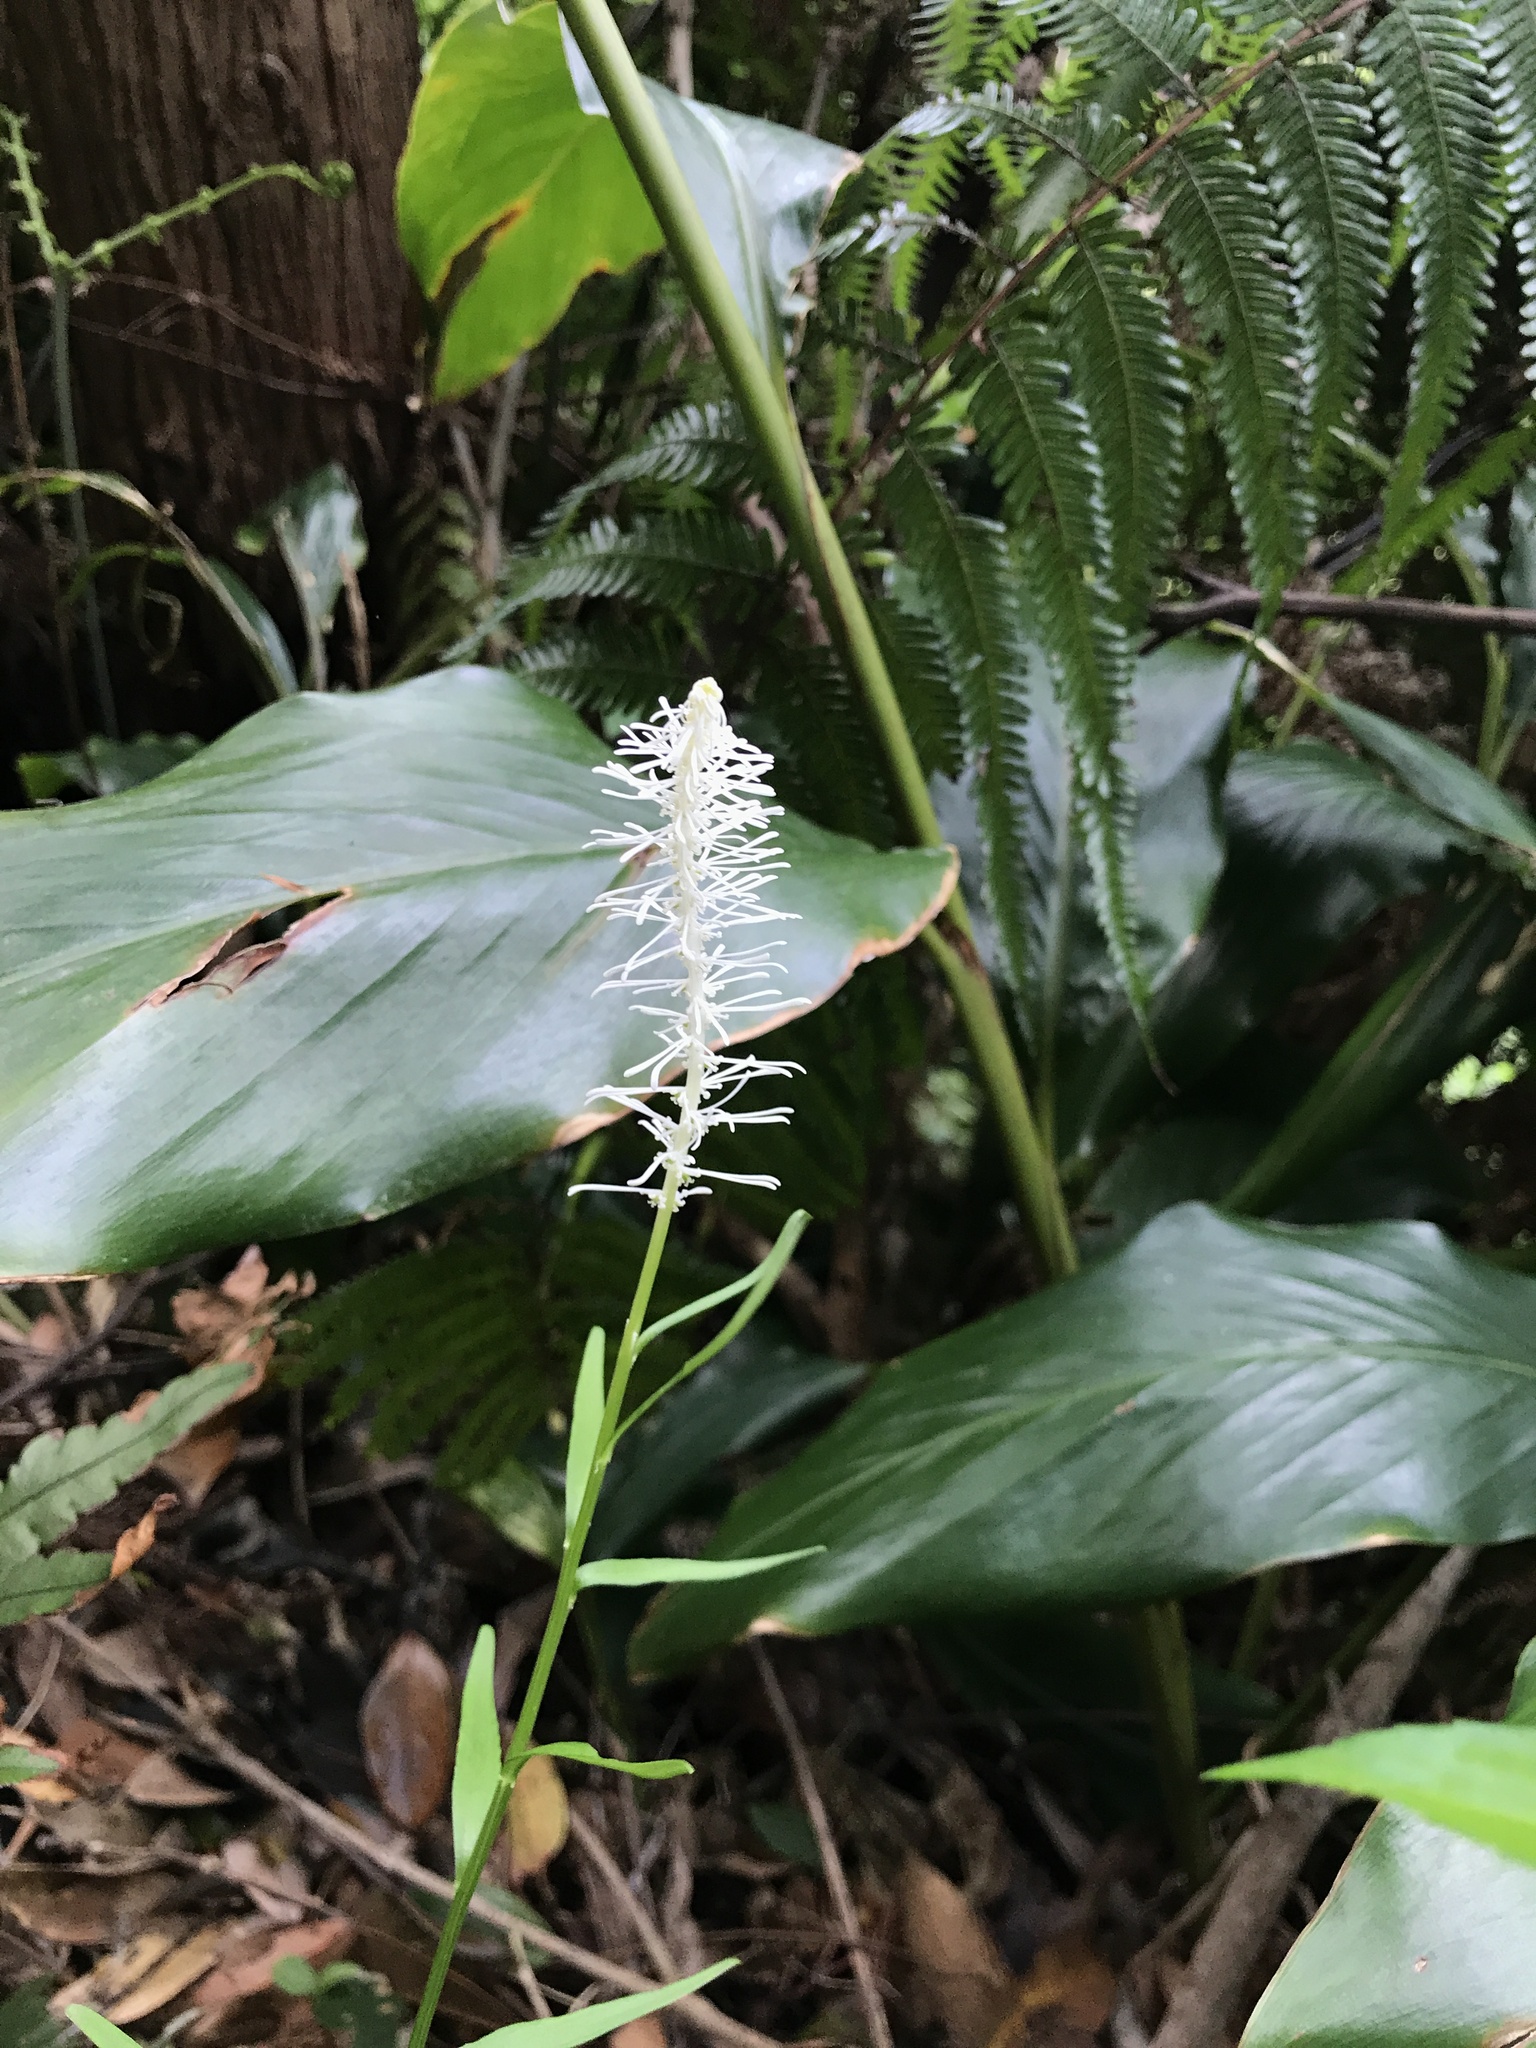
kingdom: Plantae
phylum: Tracheophyta
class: Liliopsida
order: Liliales
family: Melanthiaceae
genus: Chamaelirium
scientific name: Chamaelirium japonicum
